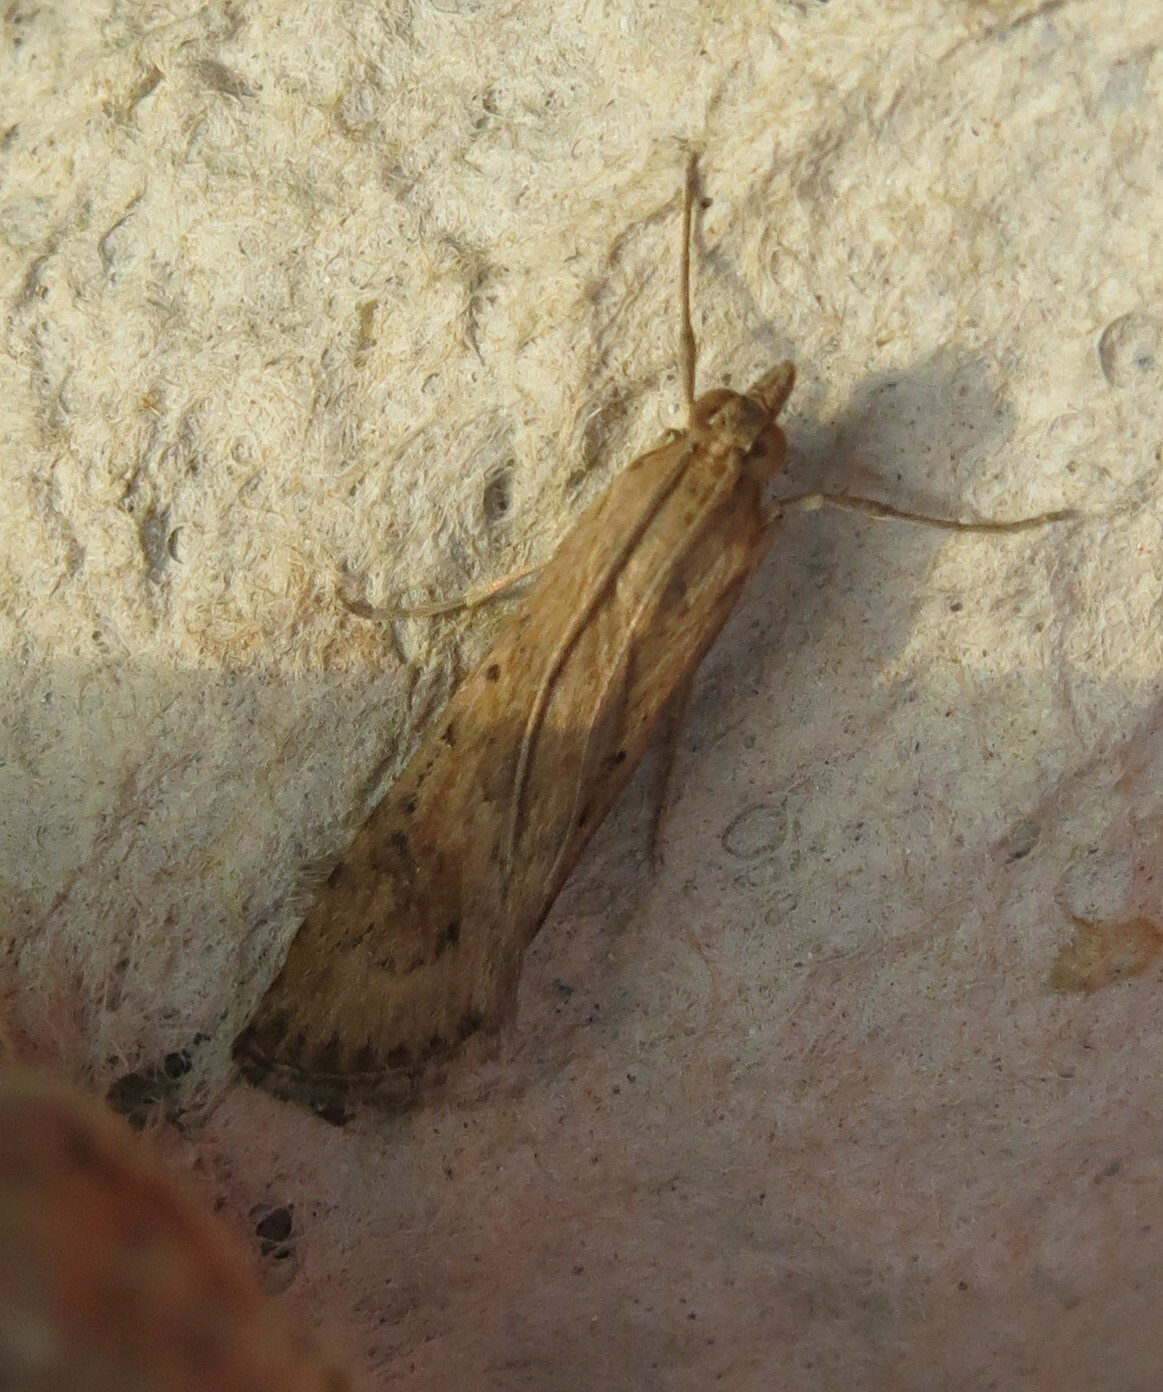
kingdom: Animalia
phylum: Arthropoda
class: Insecta
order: Lepidoptera
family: Crambidae
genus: Nomophila
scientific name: Nomophila noctuella
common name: Rush veneer
